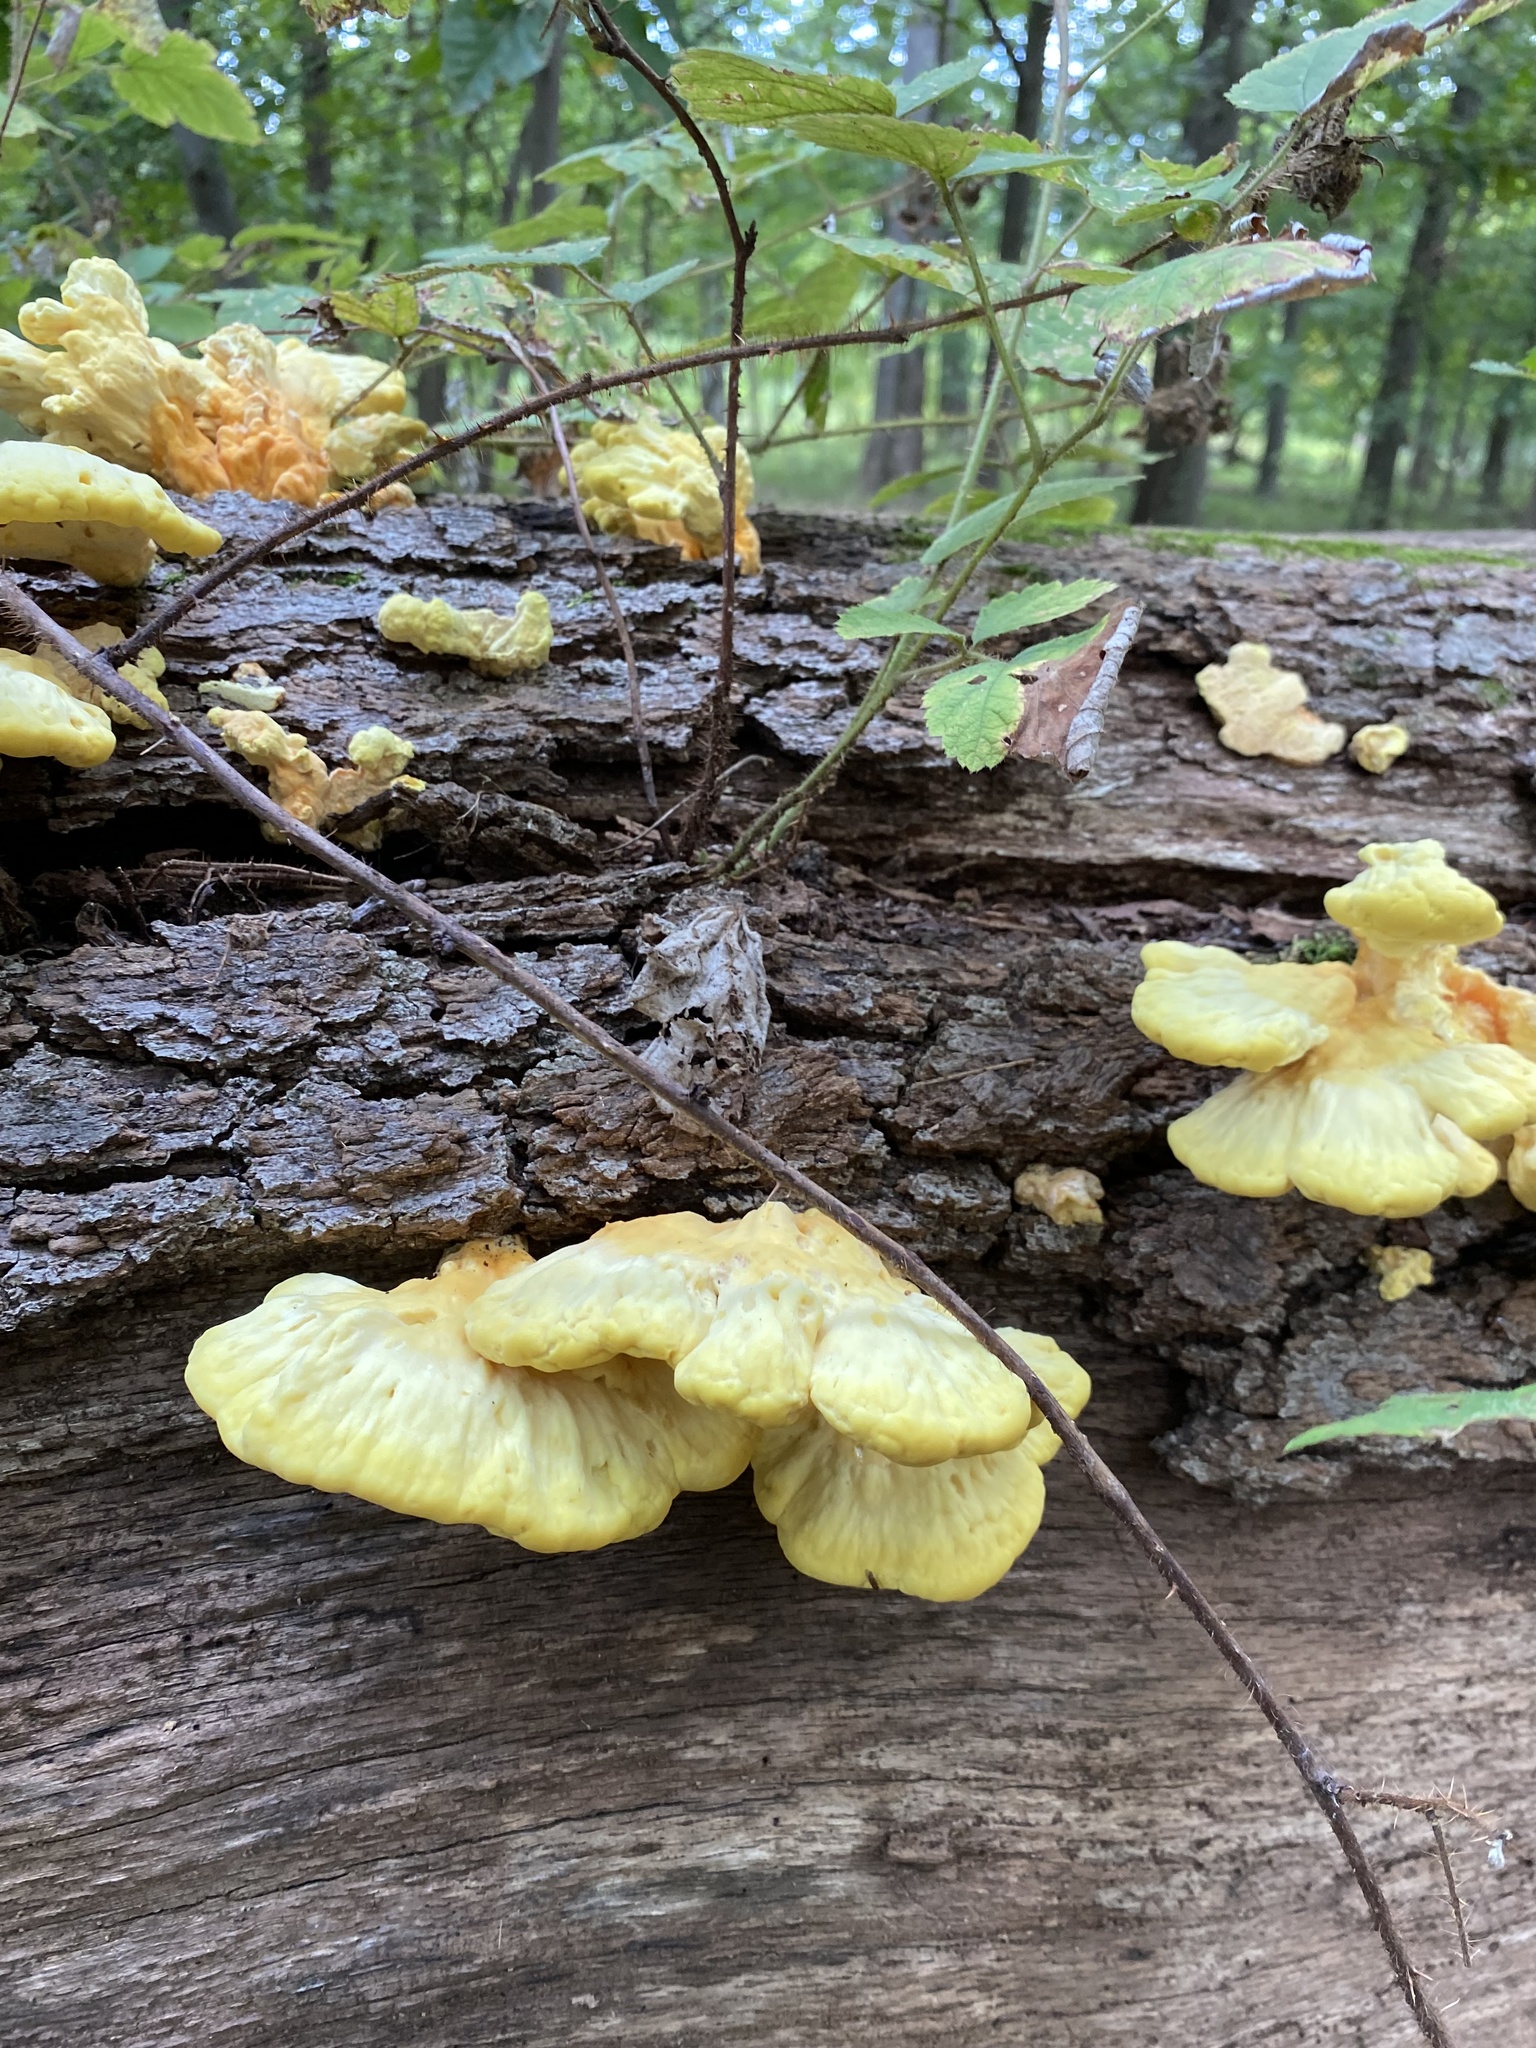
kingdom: Fungi
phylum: Basidiomycota
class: Agaricomycetes
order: Polyporales
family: Laetiporaceae
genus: Laetiporus
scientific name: Laetiporus sulphureus
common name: Chicken of the woods
